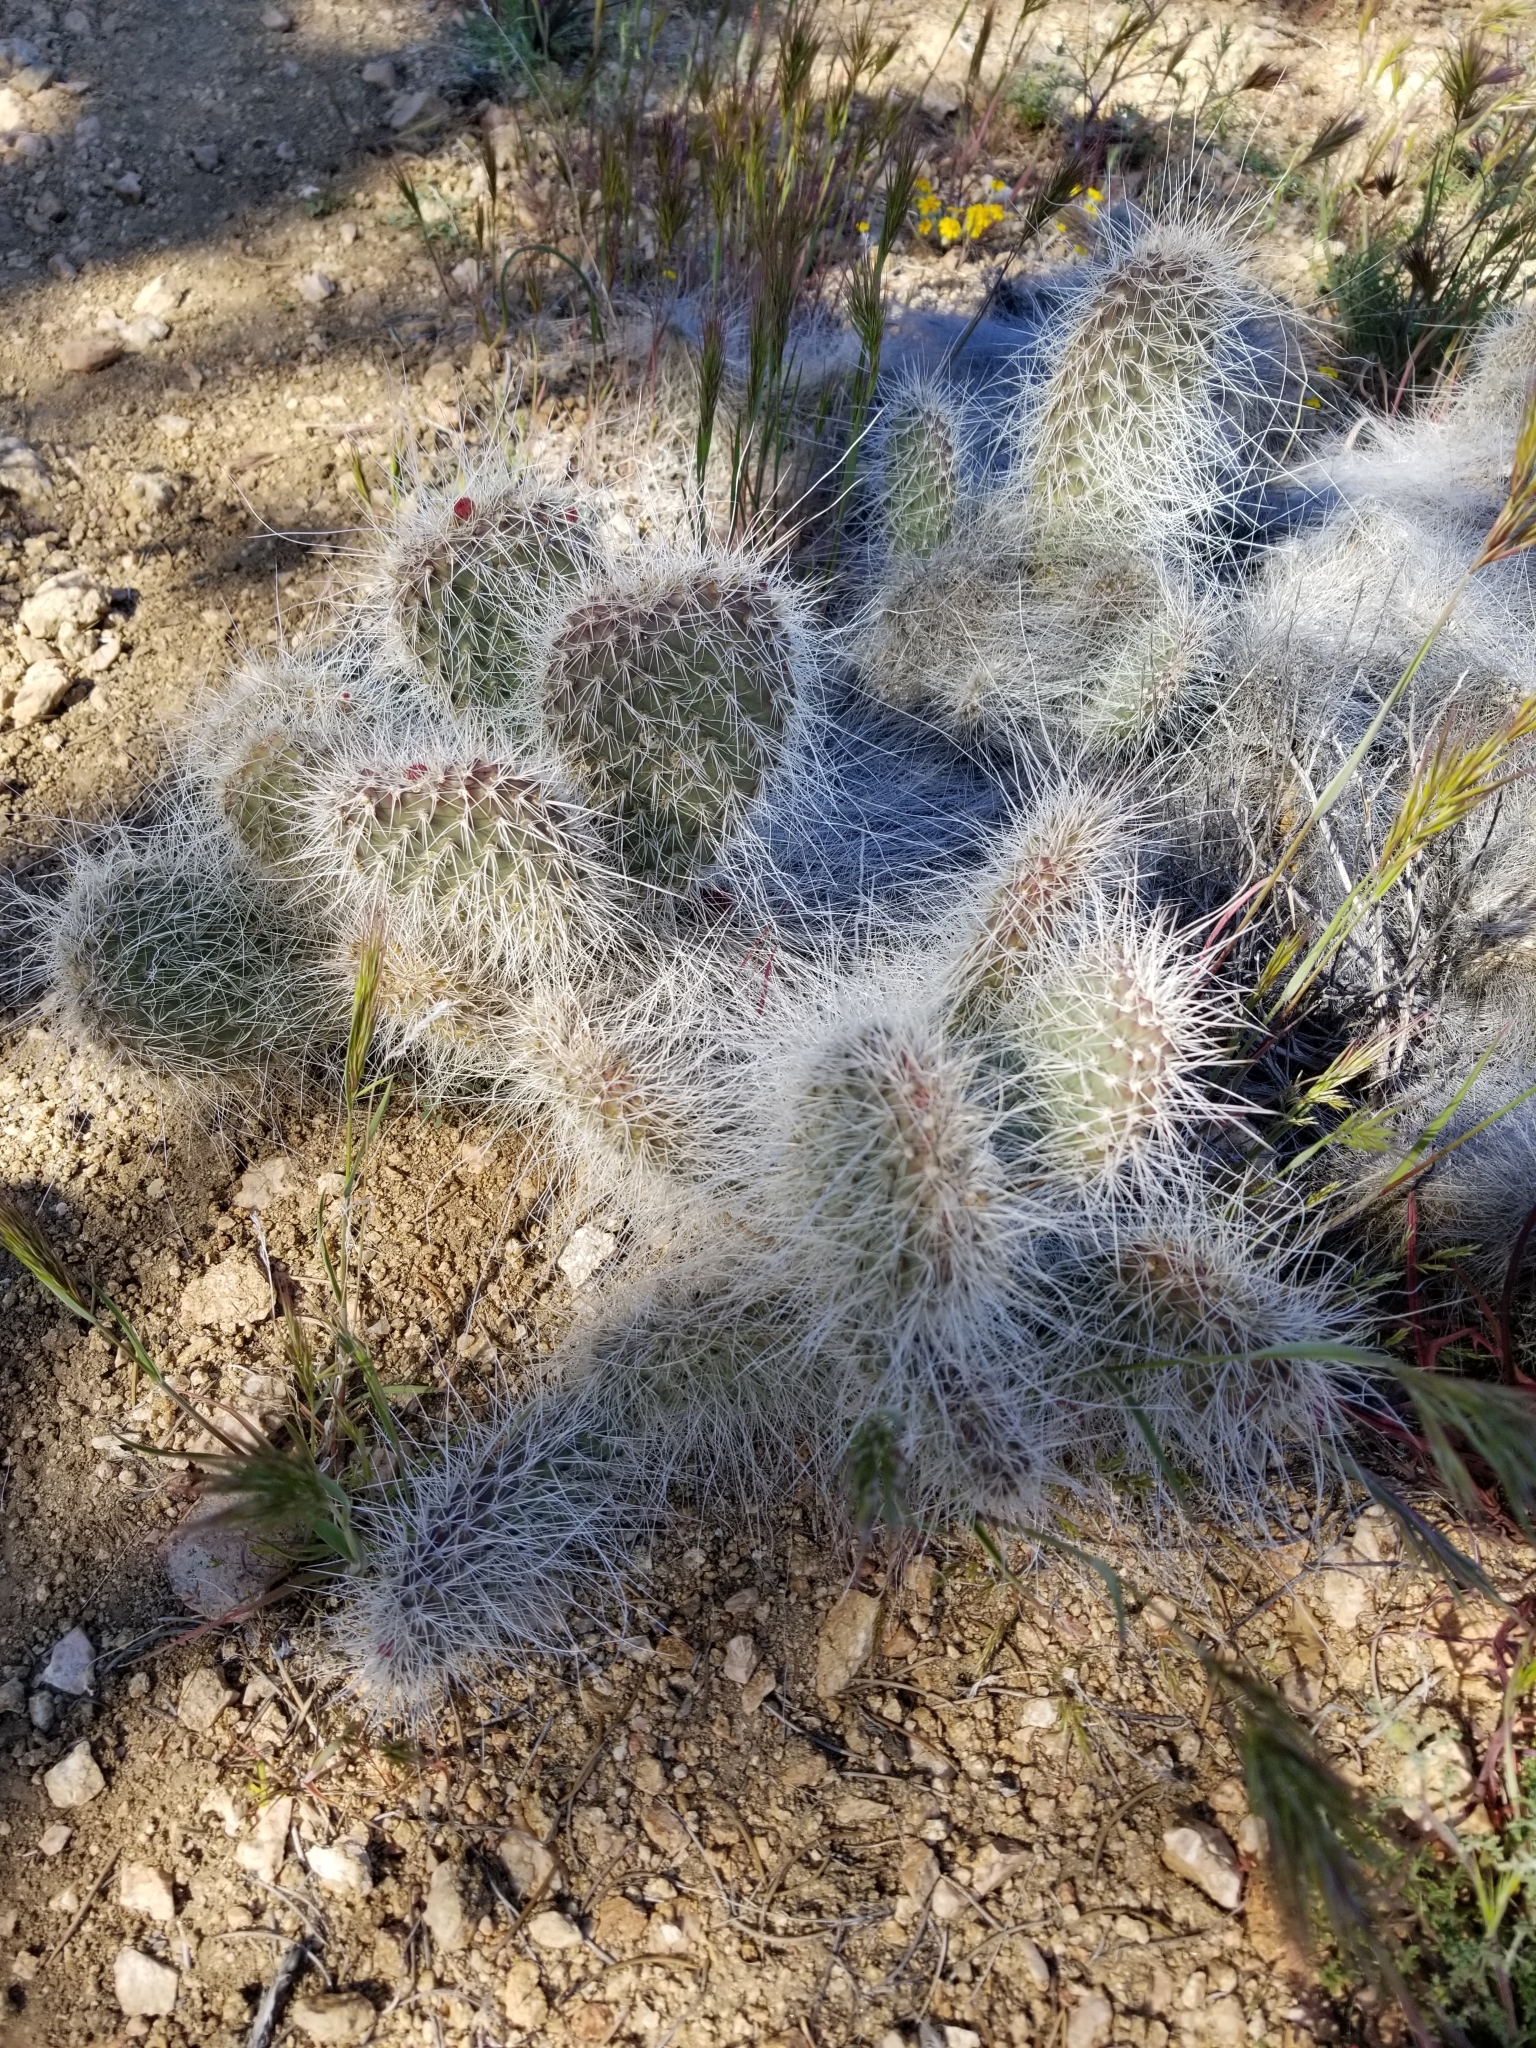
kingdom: Plantae
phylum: Tracheophyta
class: Magnoliopsida
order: Caryophyllales
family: Cactaceae
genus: Opuntia
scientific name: Opuntia polyacantha
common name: Plains prickly-pear
